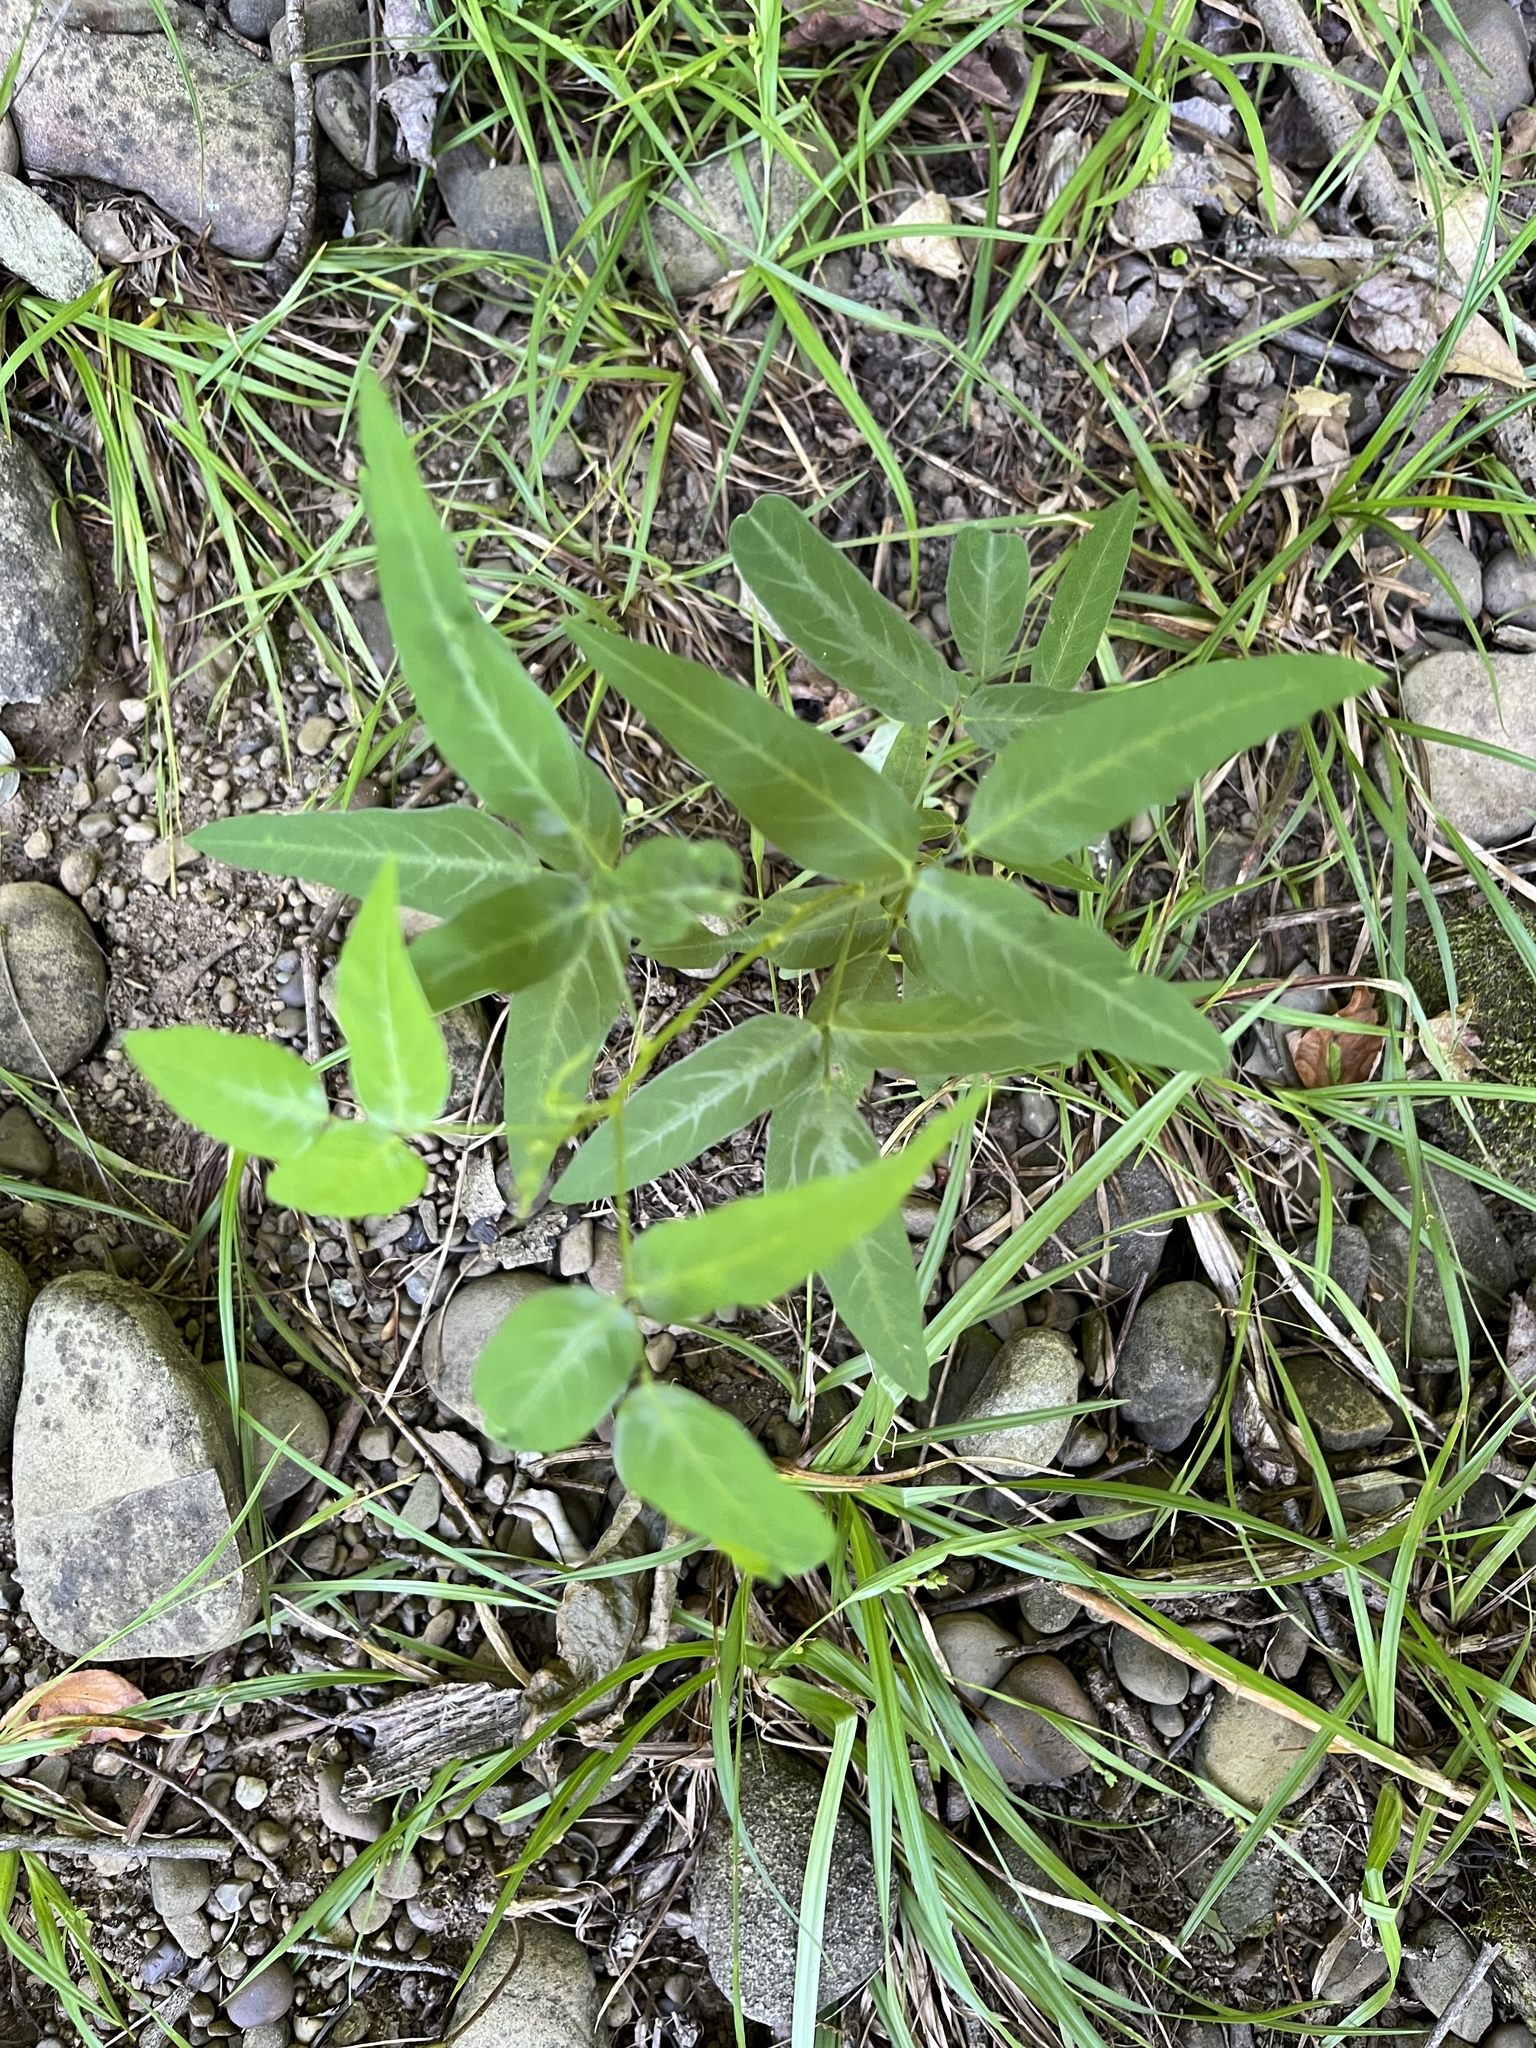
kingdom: Plantae
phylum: Tracheophyta
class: Magnoliopsida
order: Fabales
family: Fabaceae
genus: Desmodium
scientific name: Desmodium paniculatum
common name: Panicled tick-clover
